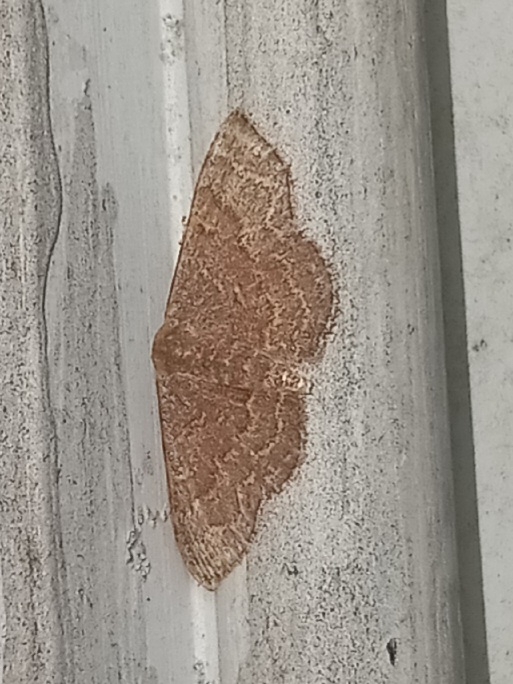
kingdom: Animalia
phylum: Arthropoda
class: Insecta
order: Lepidoptera
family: Geometridae
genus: Leptostales
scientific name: Leptostales pannaria
